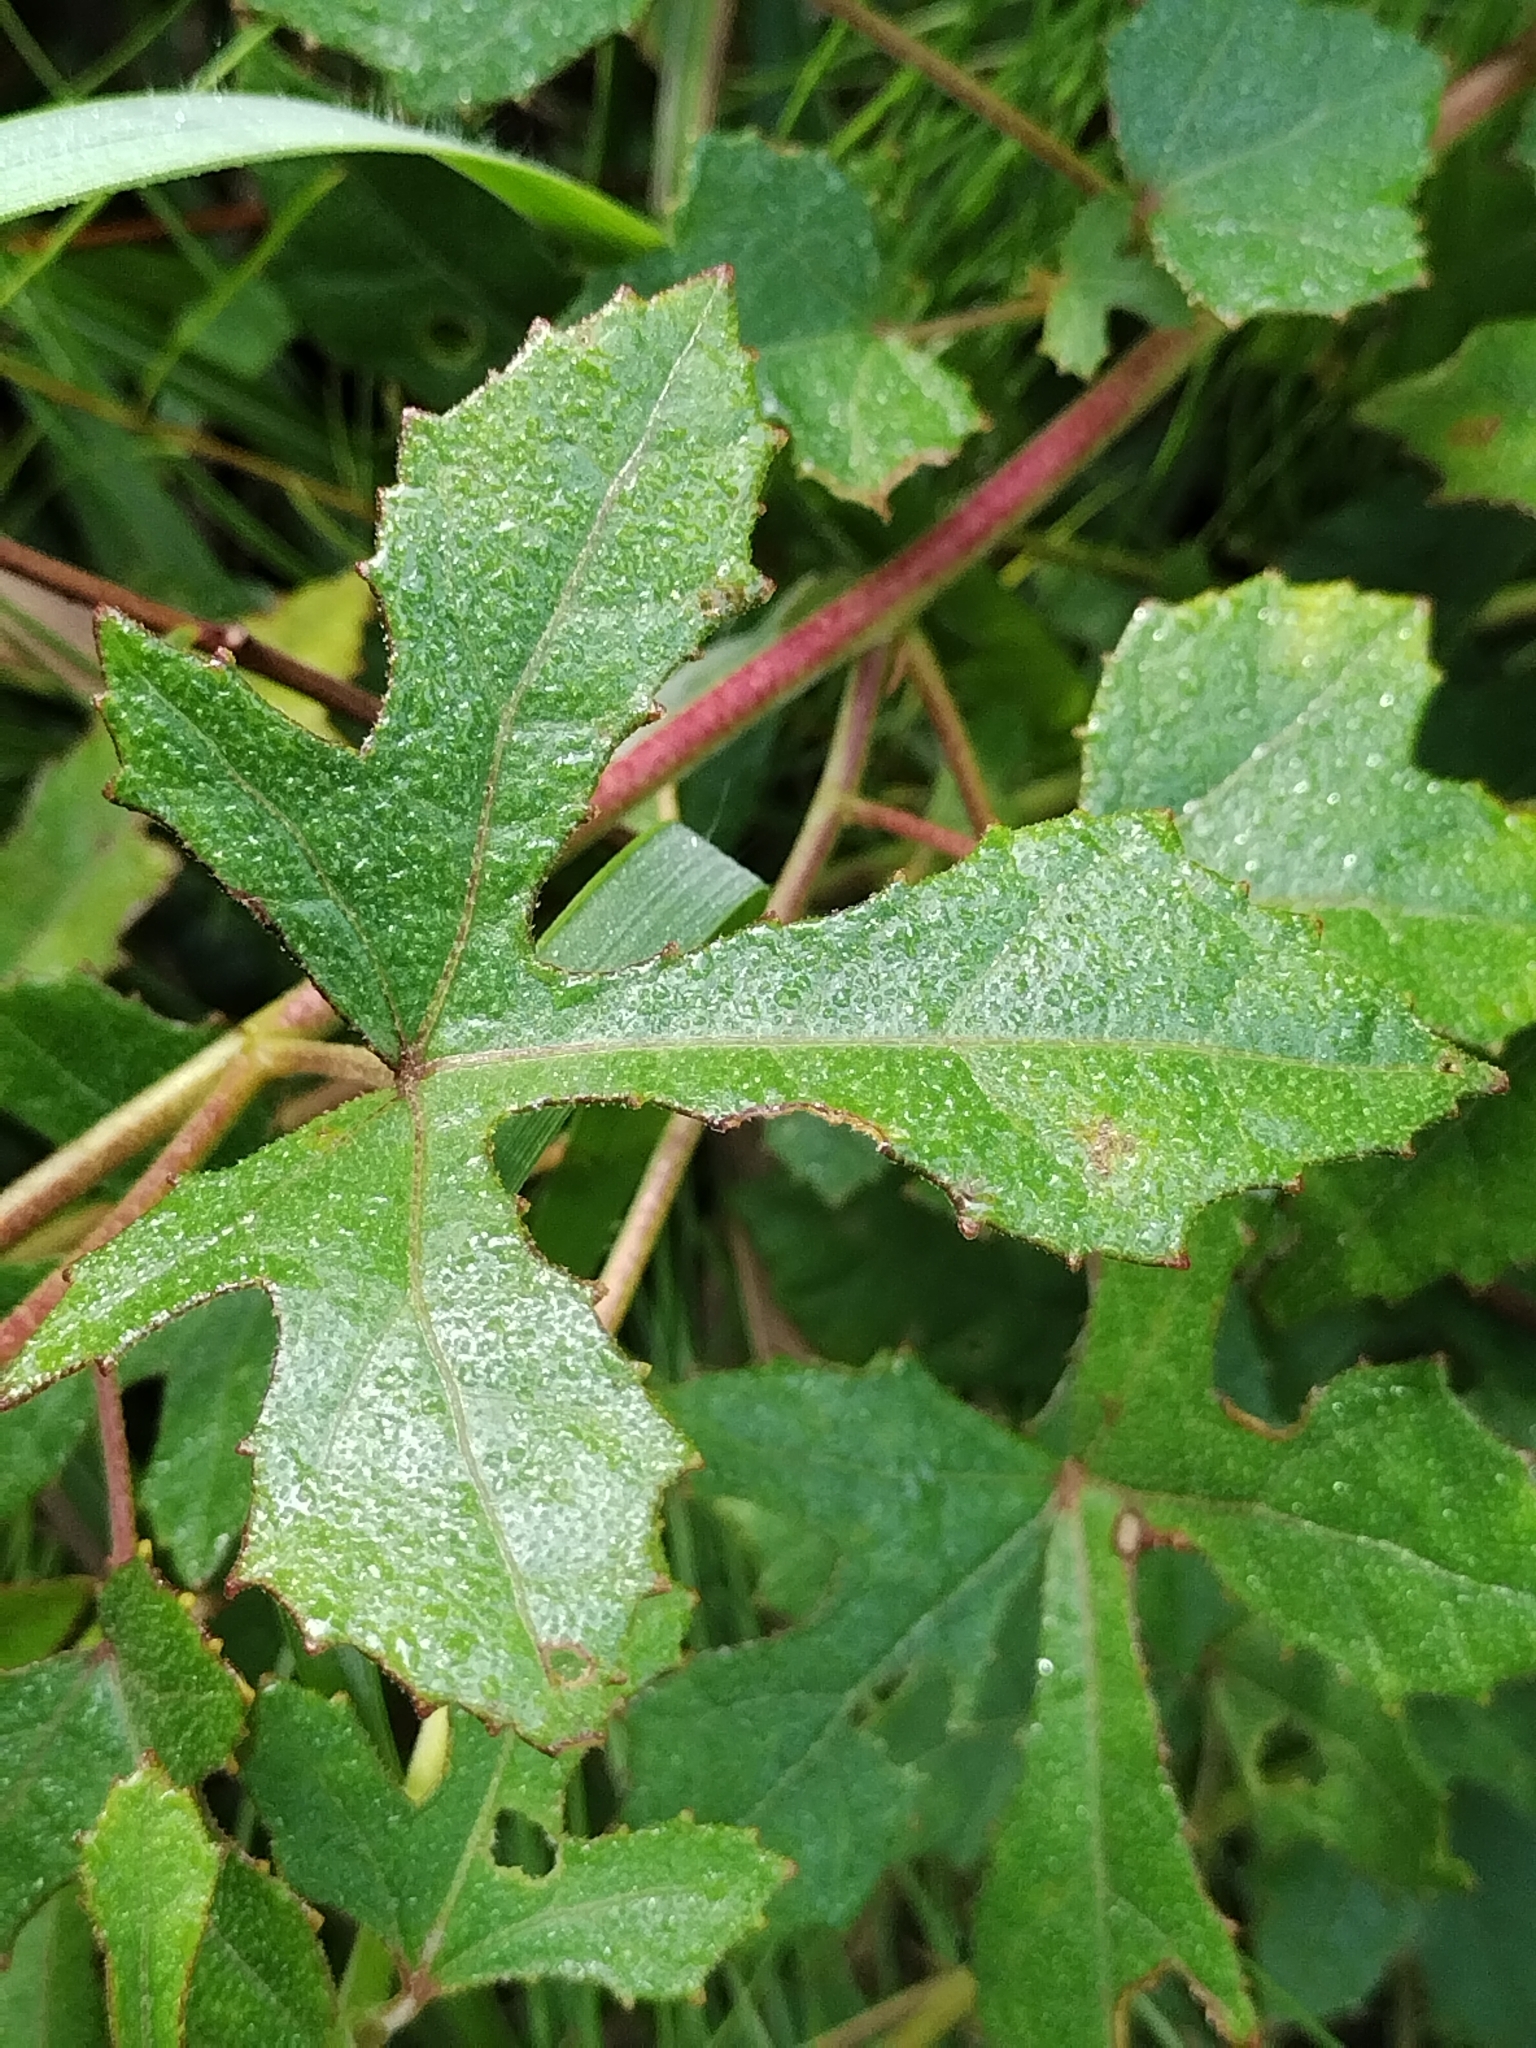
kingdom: Plantae
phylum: Tracheophyta
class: Magnoliopsida
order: Malvales
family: Malvaceae
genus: Hibiscus
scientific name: Hibiscus aculeatus
